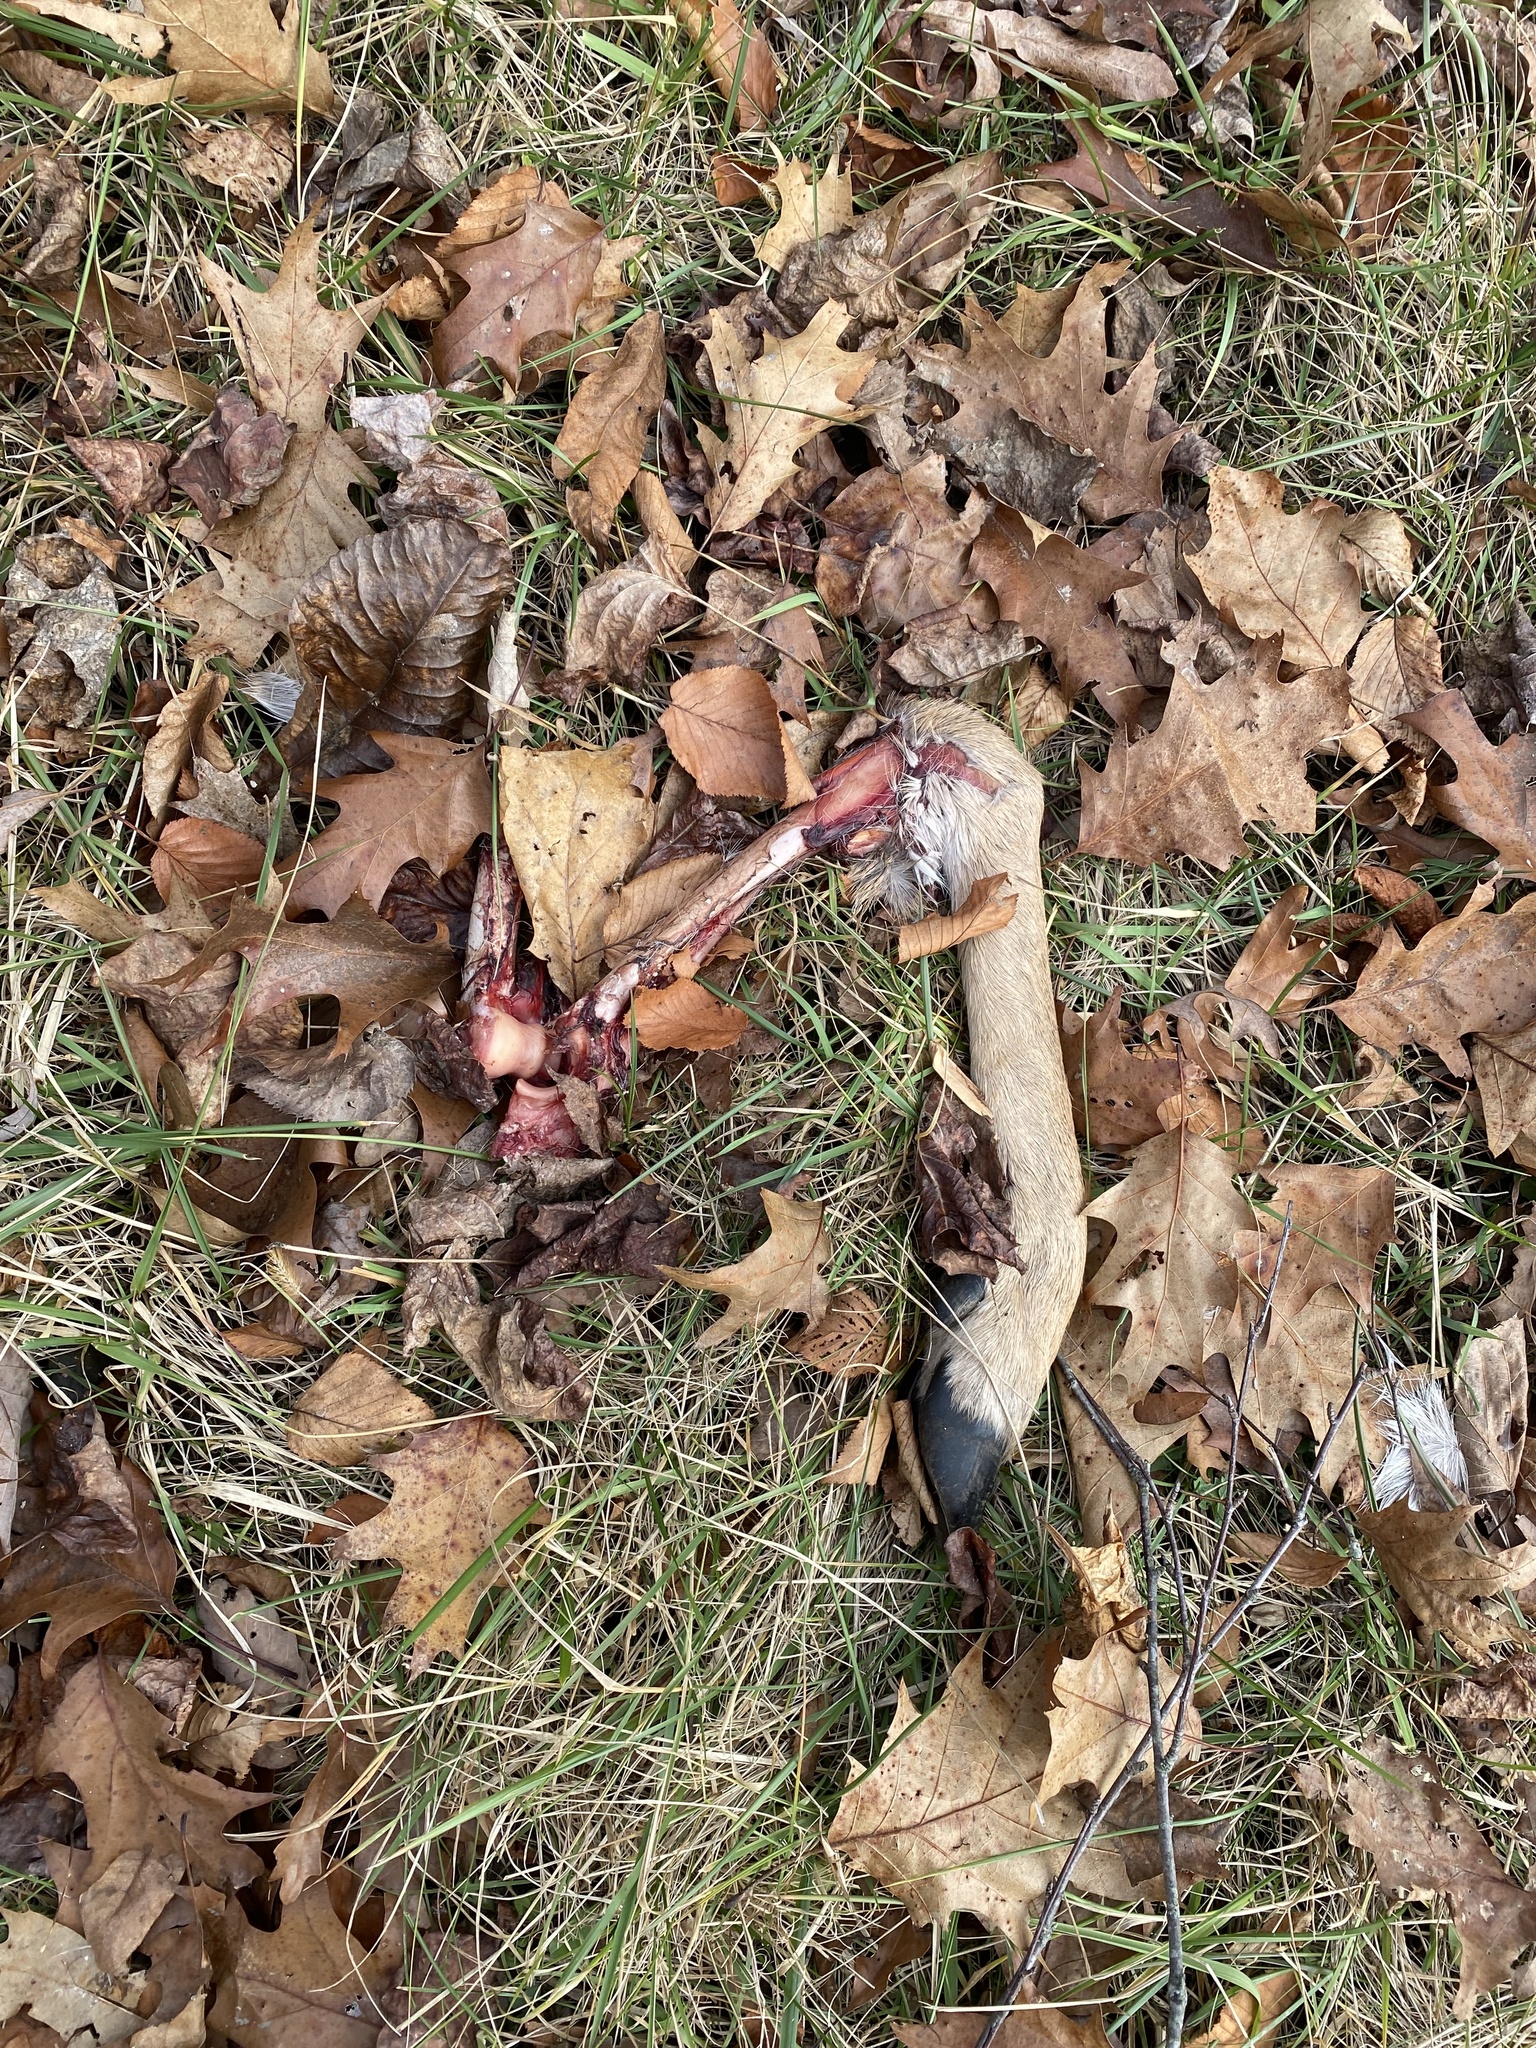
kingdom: Animalia
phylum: Chordata
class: Mammalia
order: Artiodactyla
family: Cervidae
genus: Odocoileus
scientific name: Odocoileus virginianus
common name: White-tailed deer
